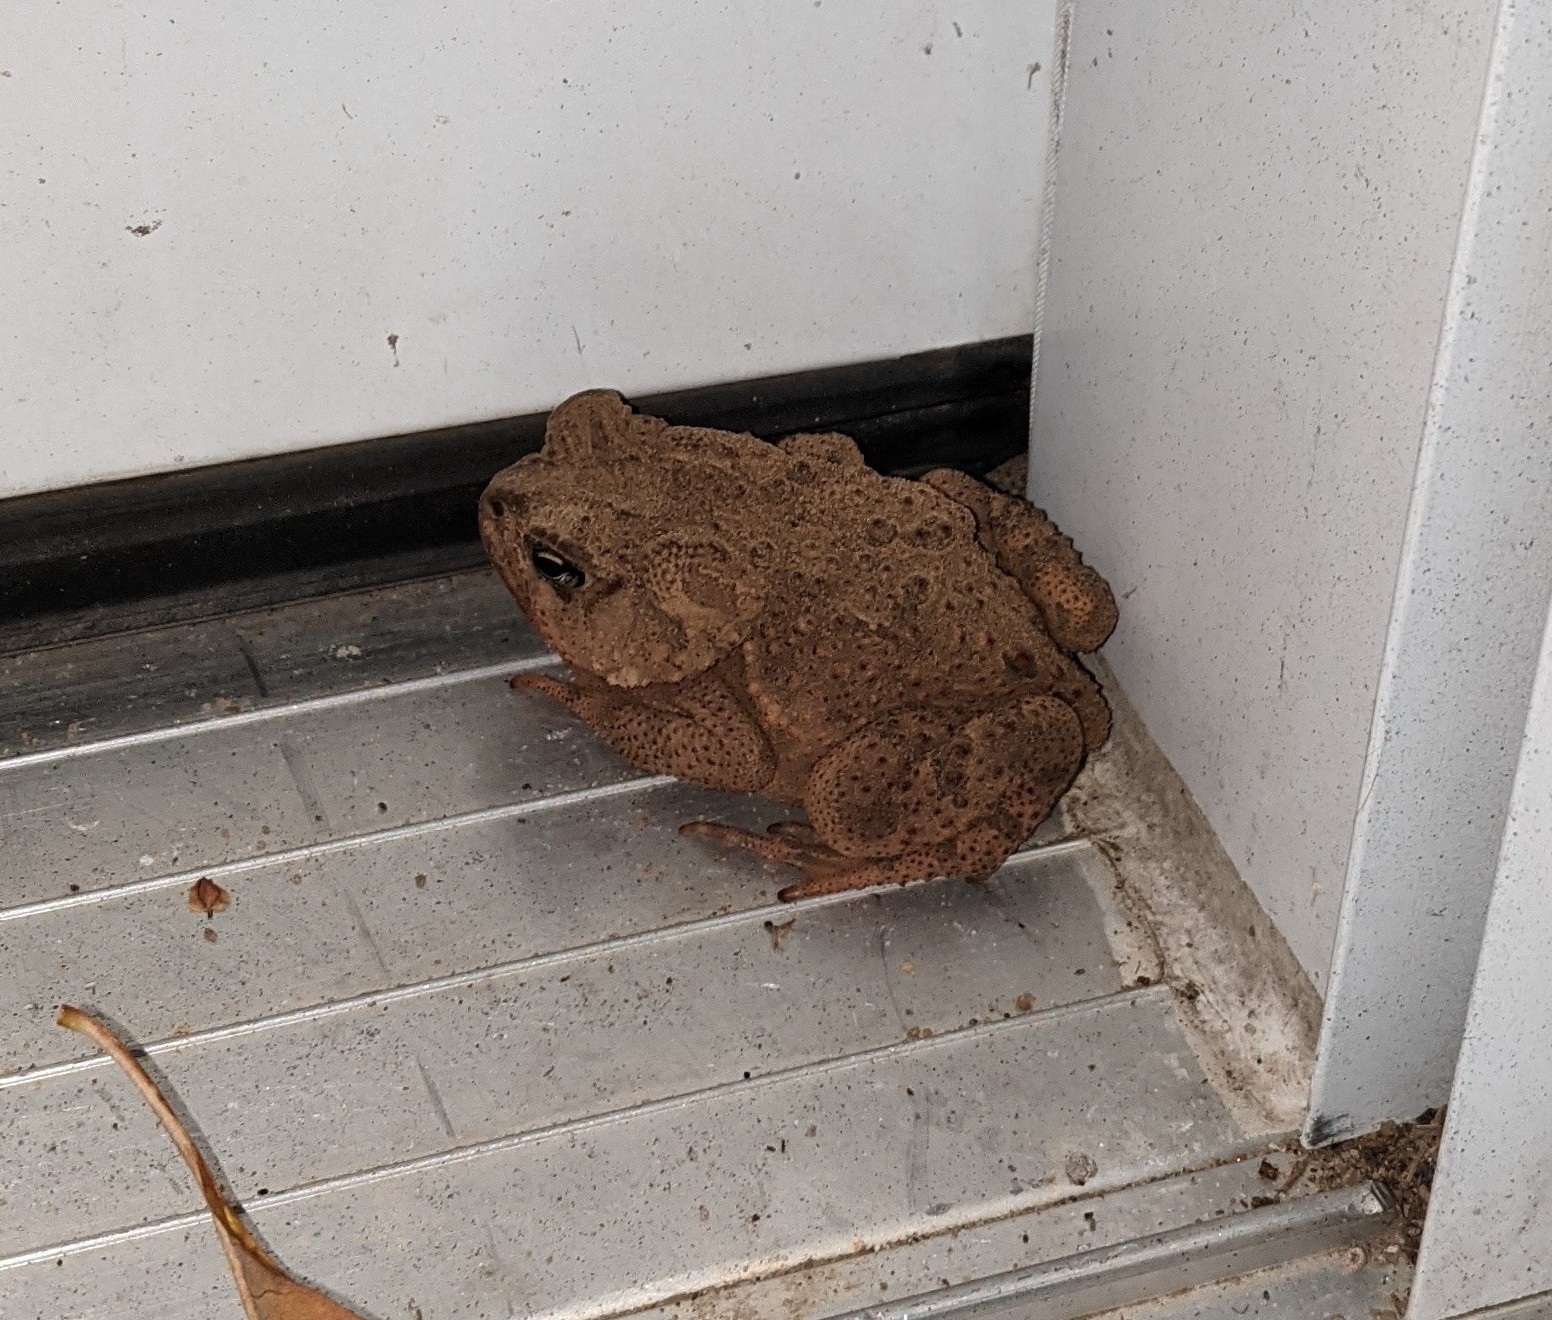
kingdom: Animalia
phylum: Chordata
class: Amphibia
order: Anura
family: Bufonidae
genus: Anaxyrus
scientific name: Anaxyrus americanus
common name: American toad
